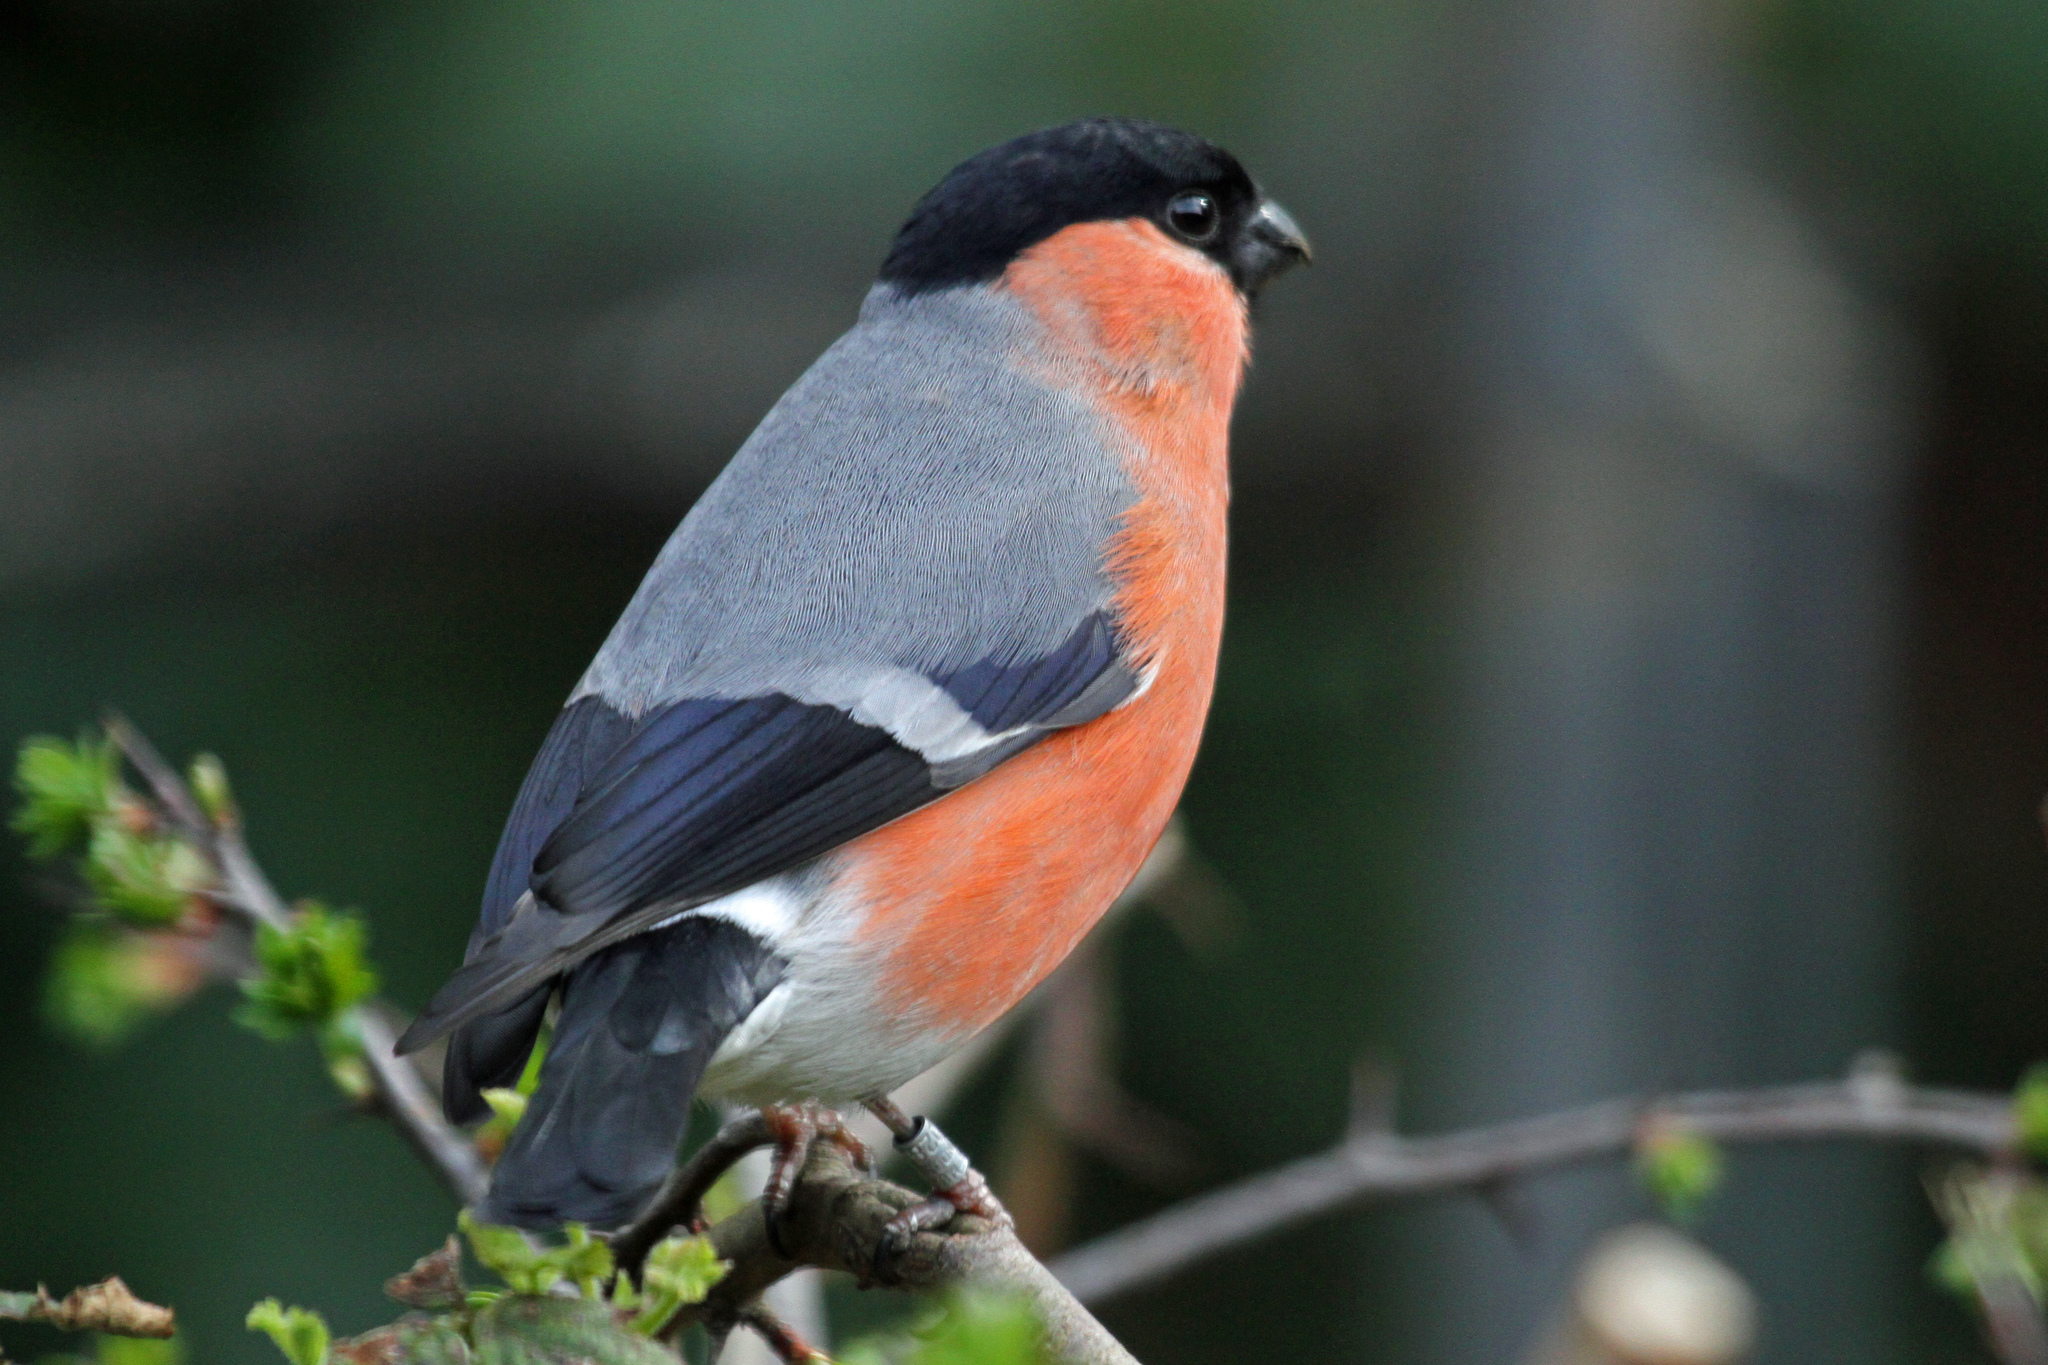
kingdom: Animalia
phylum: Chordata
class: Aves
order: Passeriformes
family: Fringillidae
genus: Pyrrhula
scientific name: Pyrrhula pyrrhula
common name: Eurasian bullfinch
